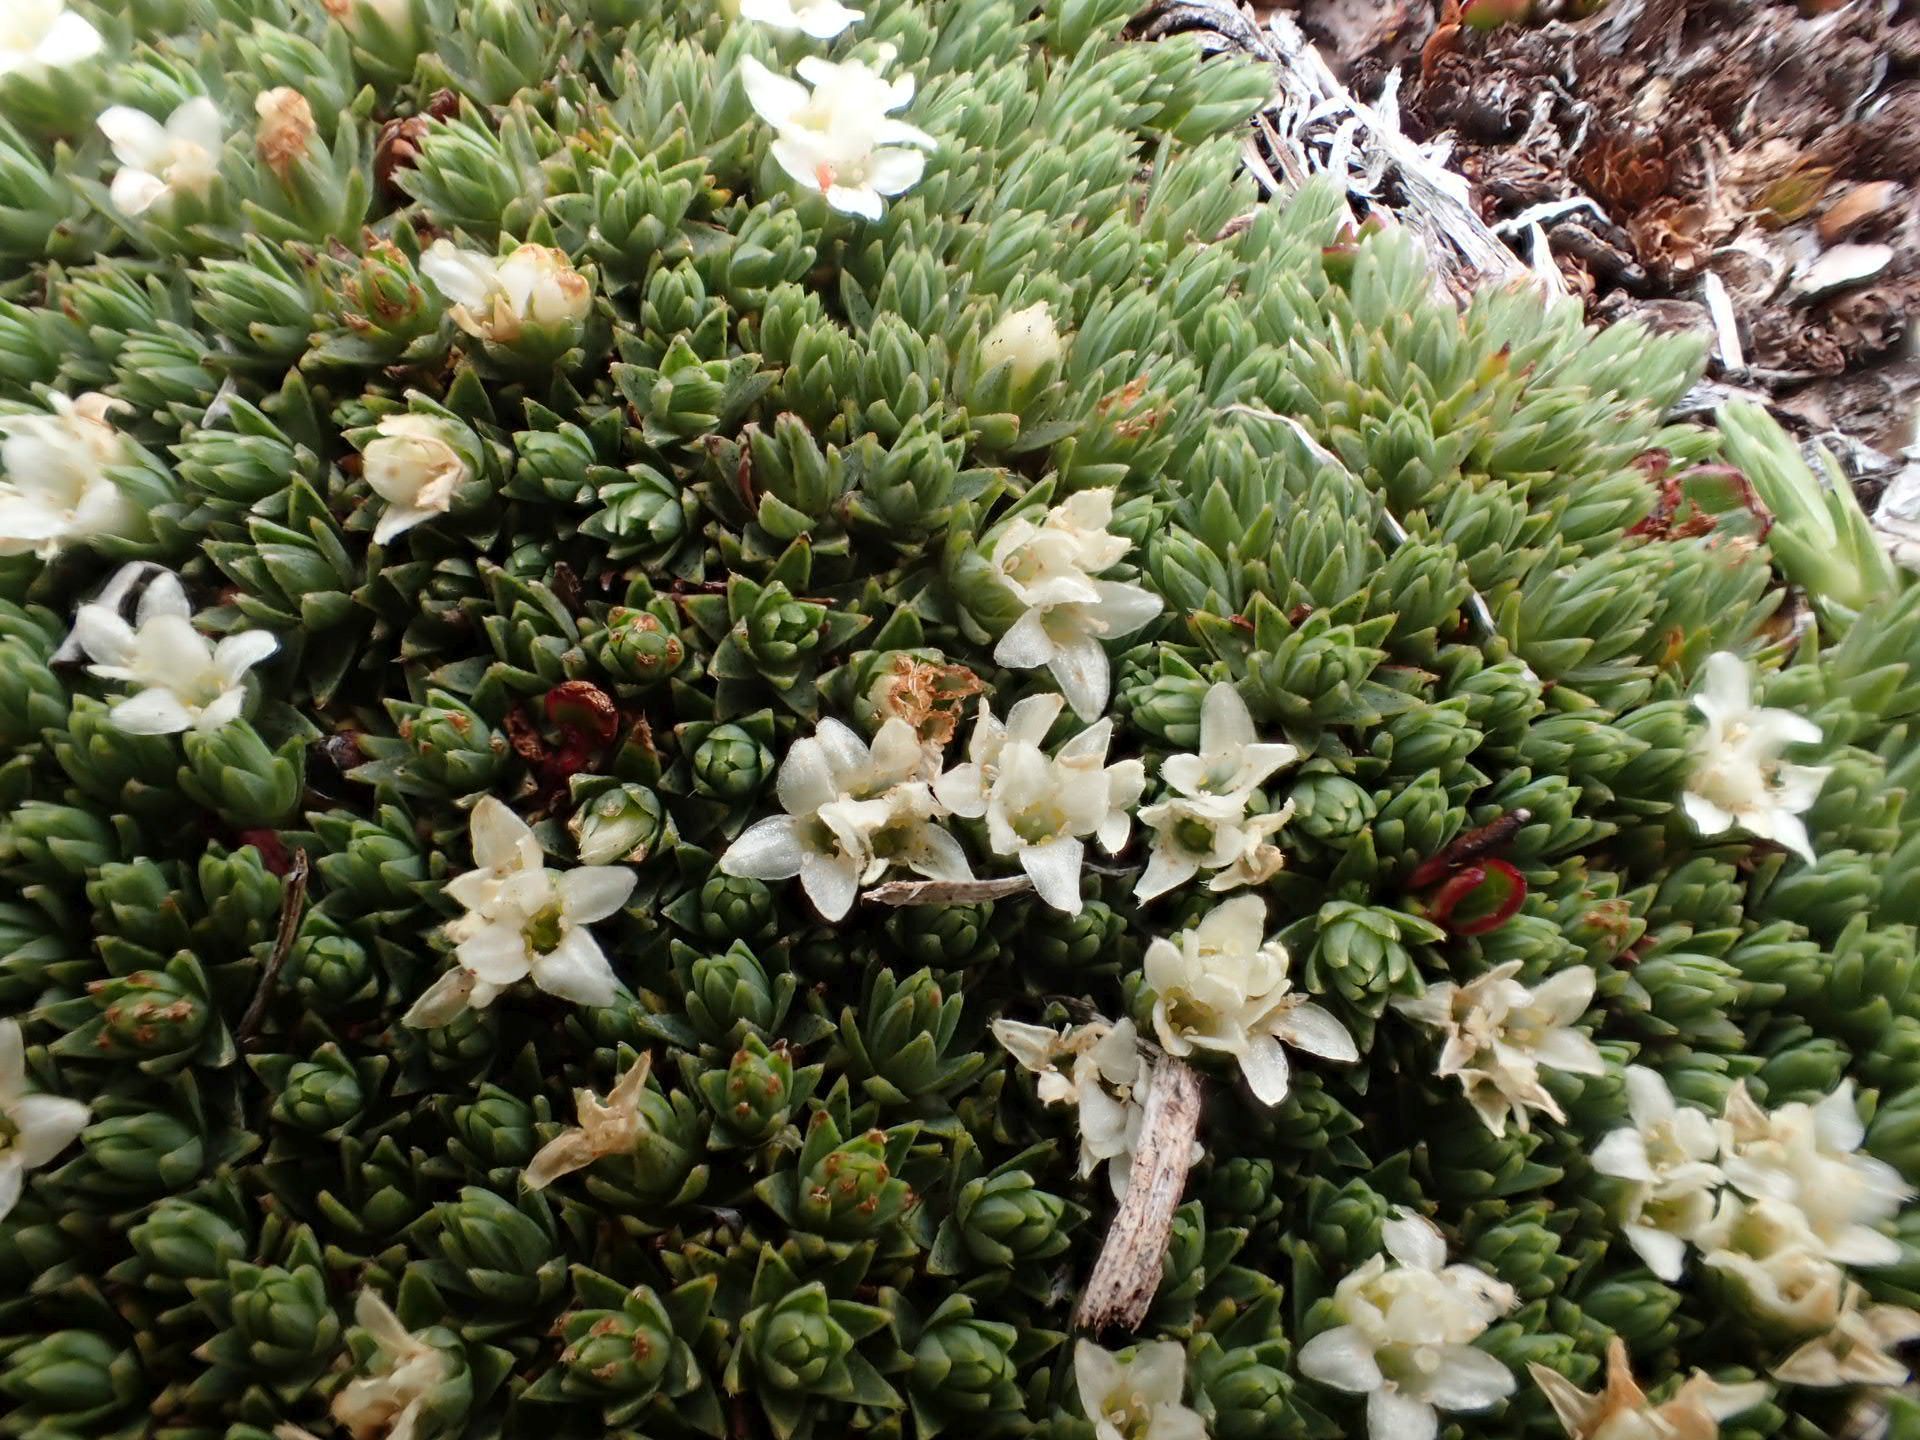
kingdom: Plantae
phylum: Tracheophyta
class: Magnoliopsida
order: Malvales
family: Thymelaeaceae
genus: Kelleria
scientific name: Kelleria croizatii
